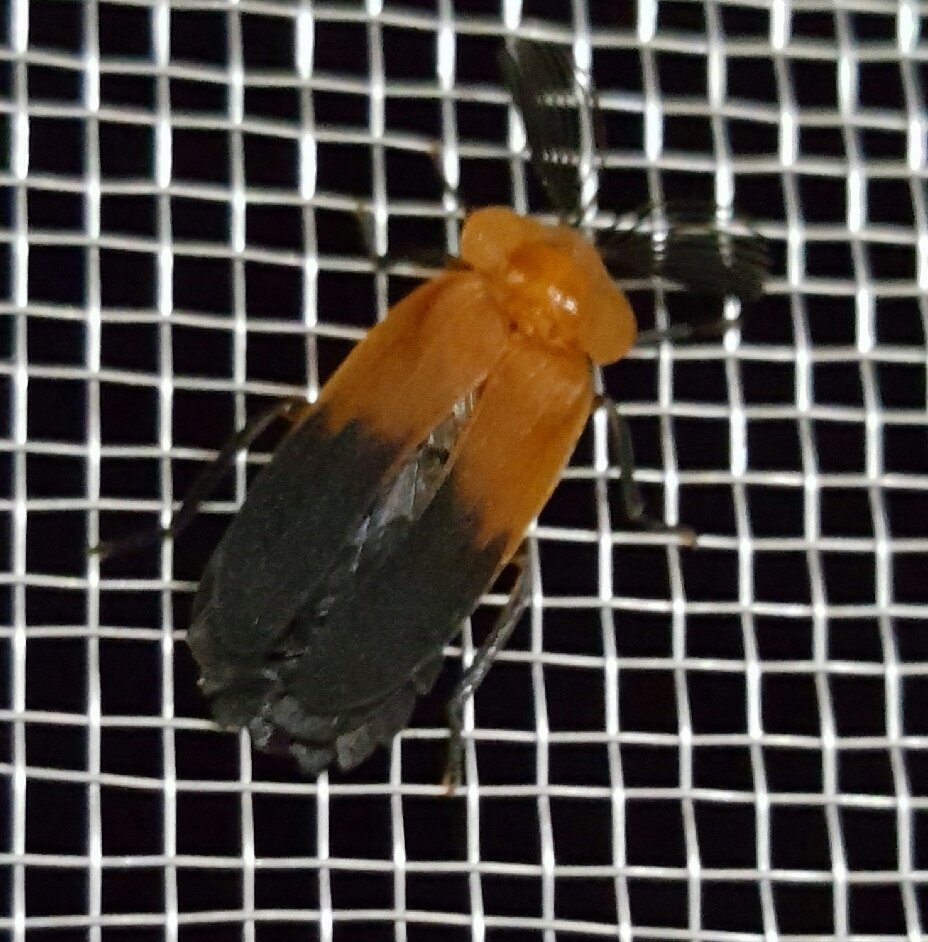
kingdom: Animalia
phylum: Arthropoda
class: Insecta
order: Coleoptera
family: Lampyridae
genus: Cladodes
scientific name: Cladodes
